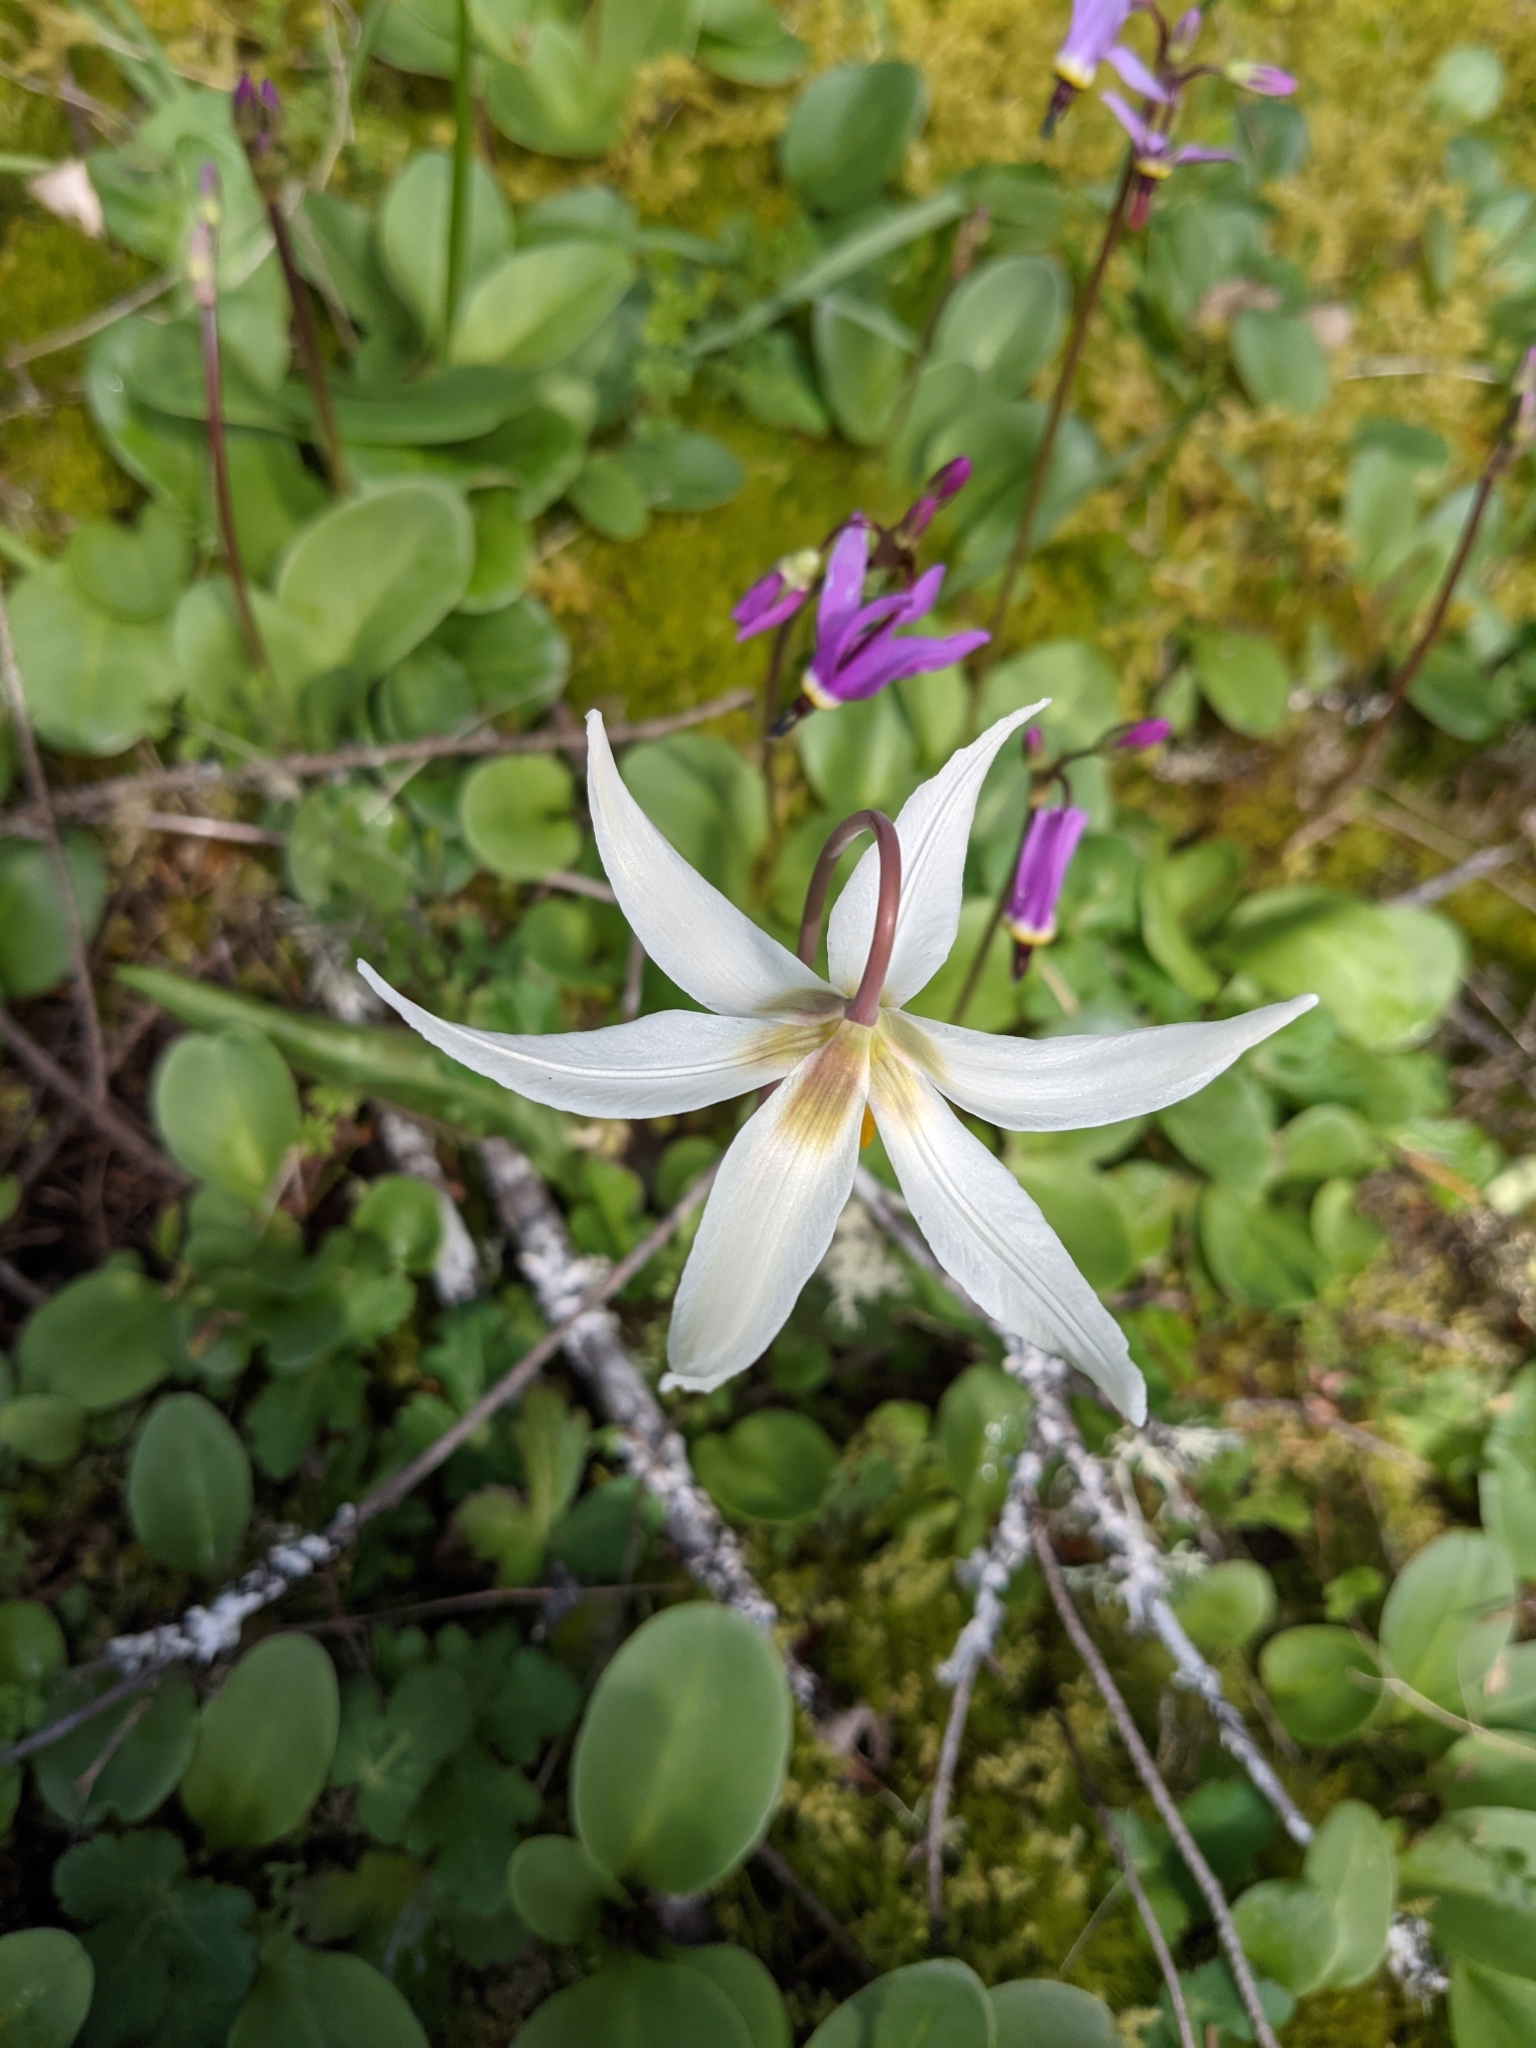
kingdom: Plantae
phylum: Tracheophyta
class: Liliopsida
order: Liliales
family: Liliaceae
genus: Erythronium
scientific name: Erythronium oregonum
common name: Giant adder's-tongue
